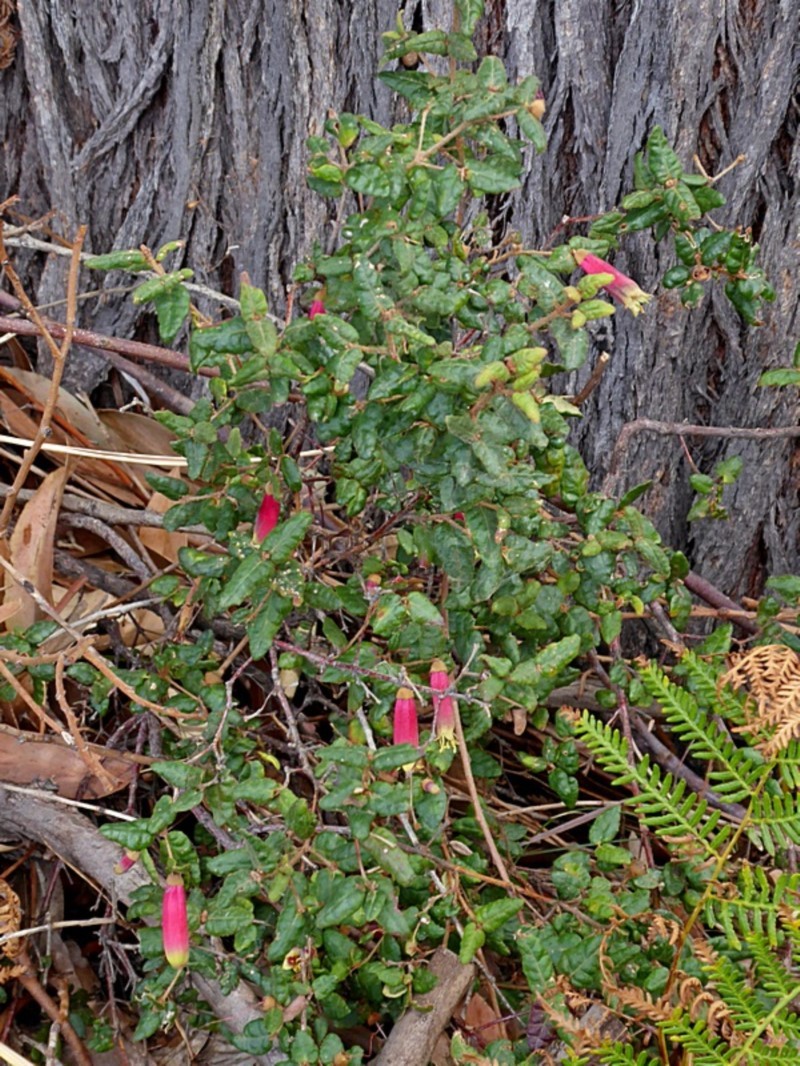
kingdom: Plantae
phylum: Tracheophyta
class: Magnoliopsida
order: Sapindales
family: Rutaceae
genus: Correa
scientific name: Correa reflexa
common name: Common correa
